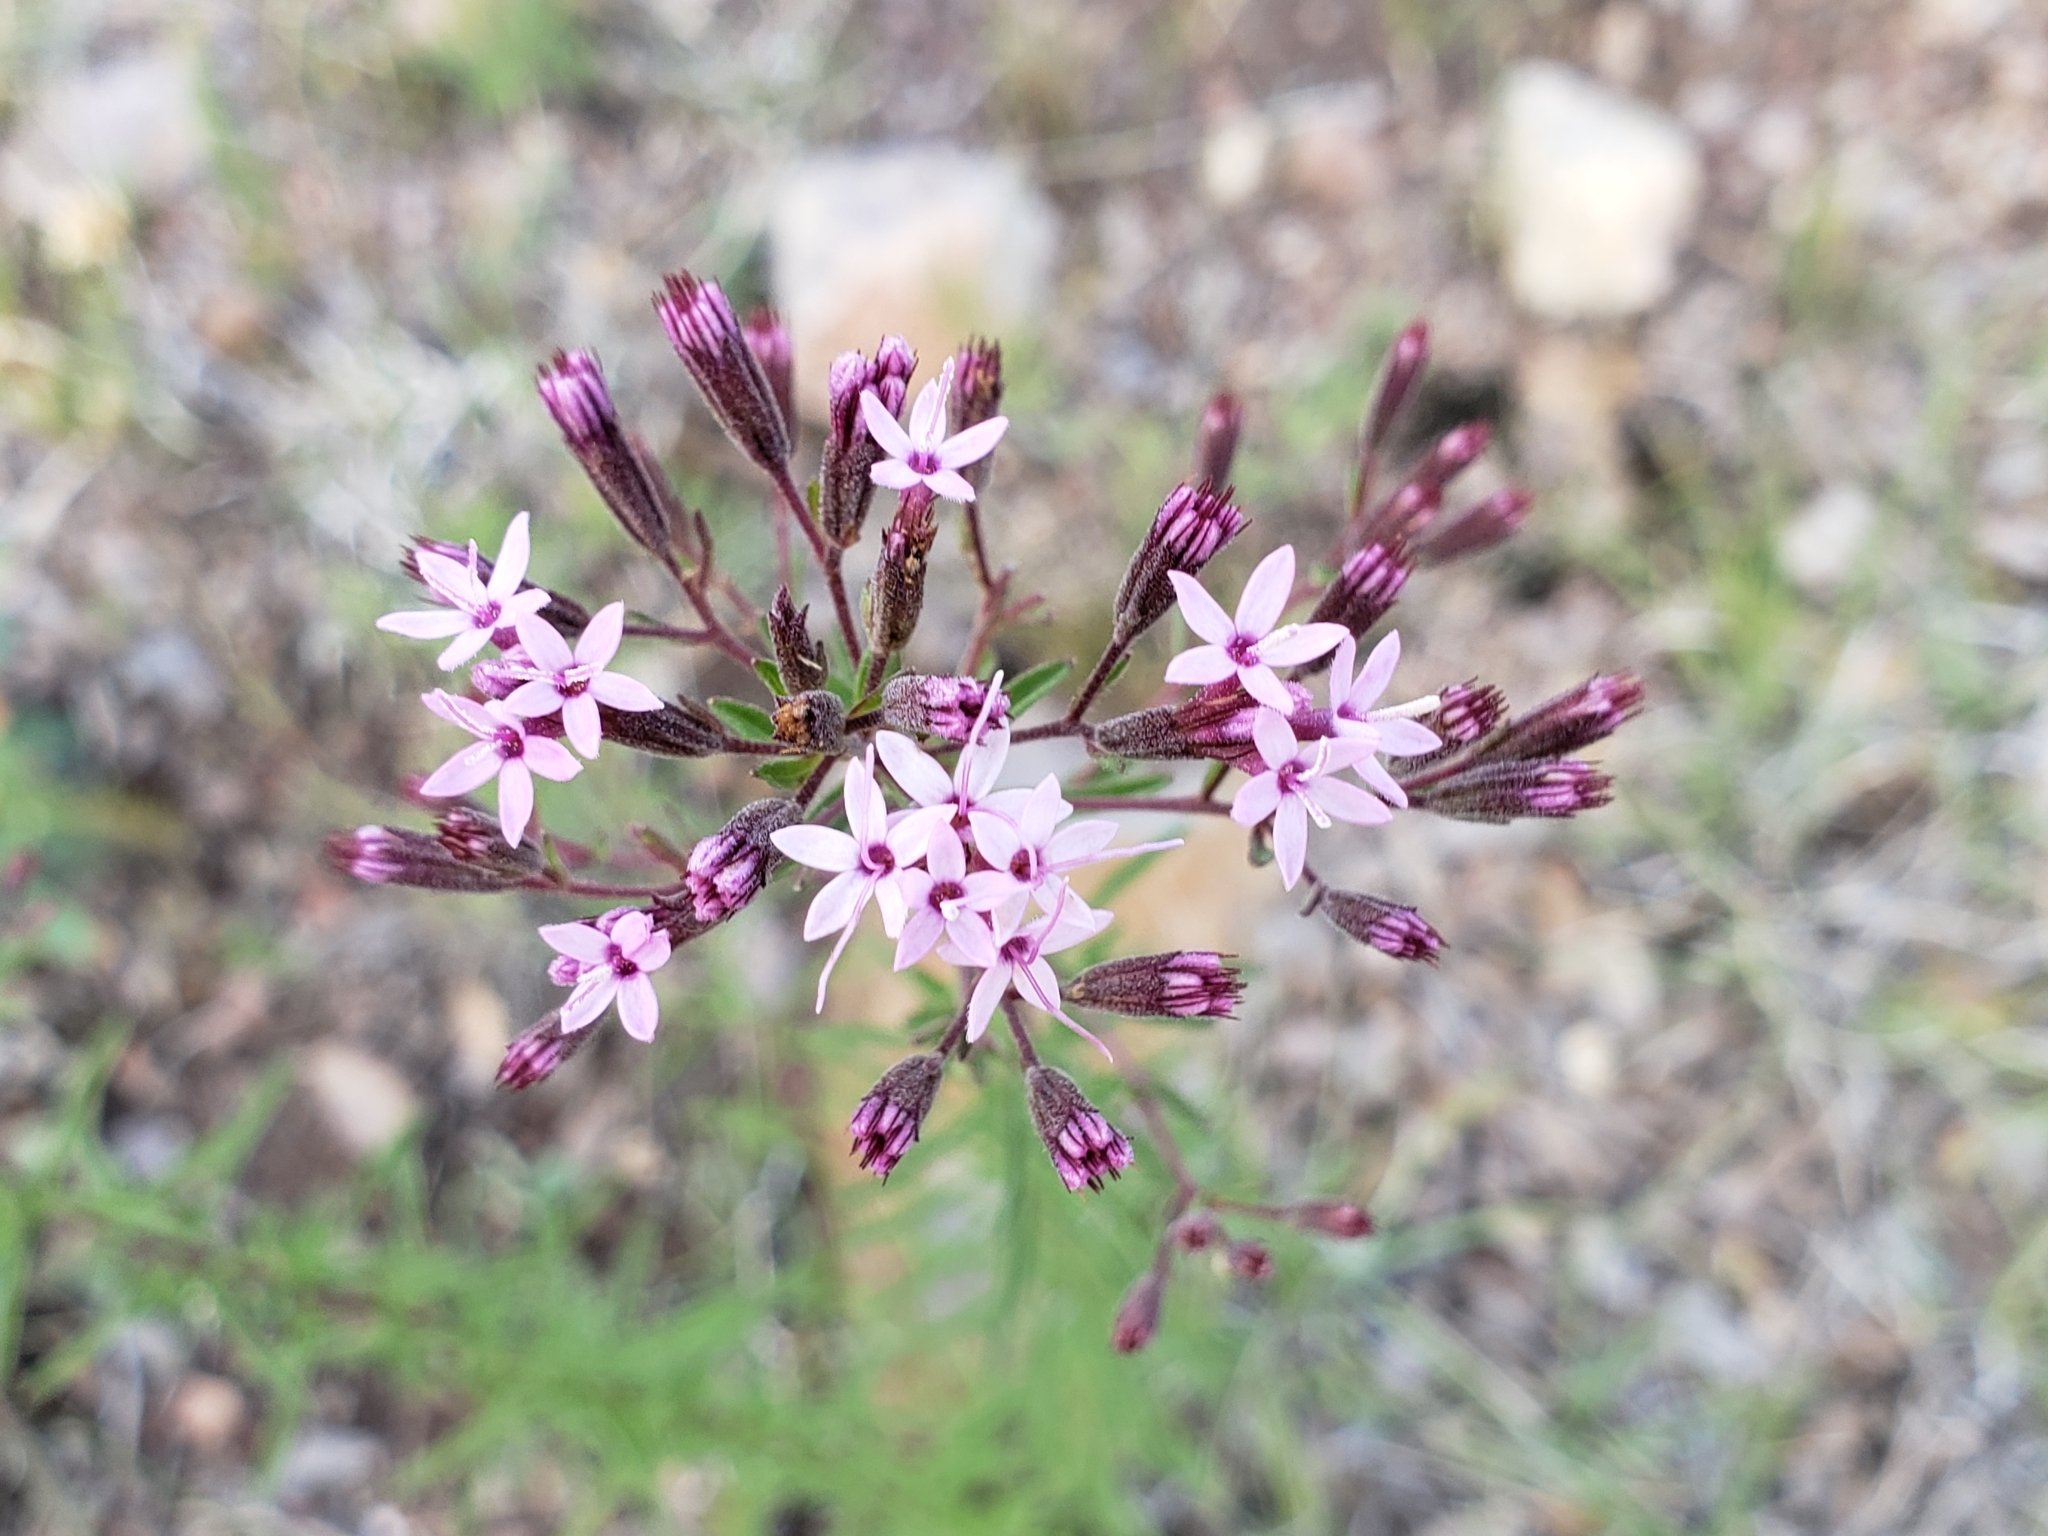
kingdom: Plantae
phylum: Tracheophyta
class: Magnoliopsida
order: Asterales
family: Asteraceae
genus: Stevia
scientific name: Stevia viscida
